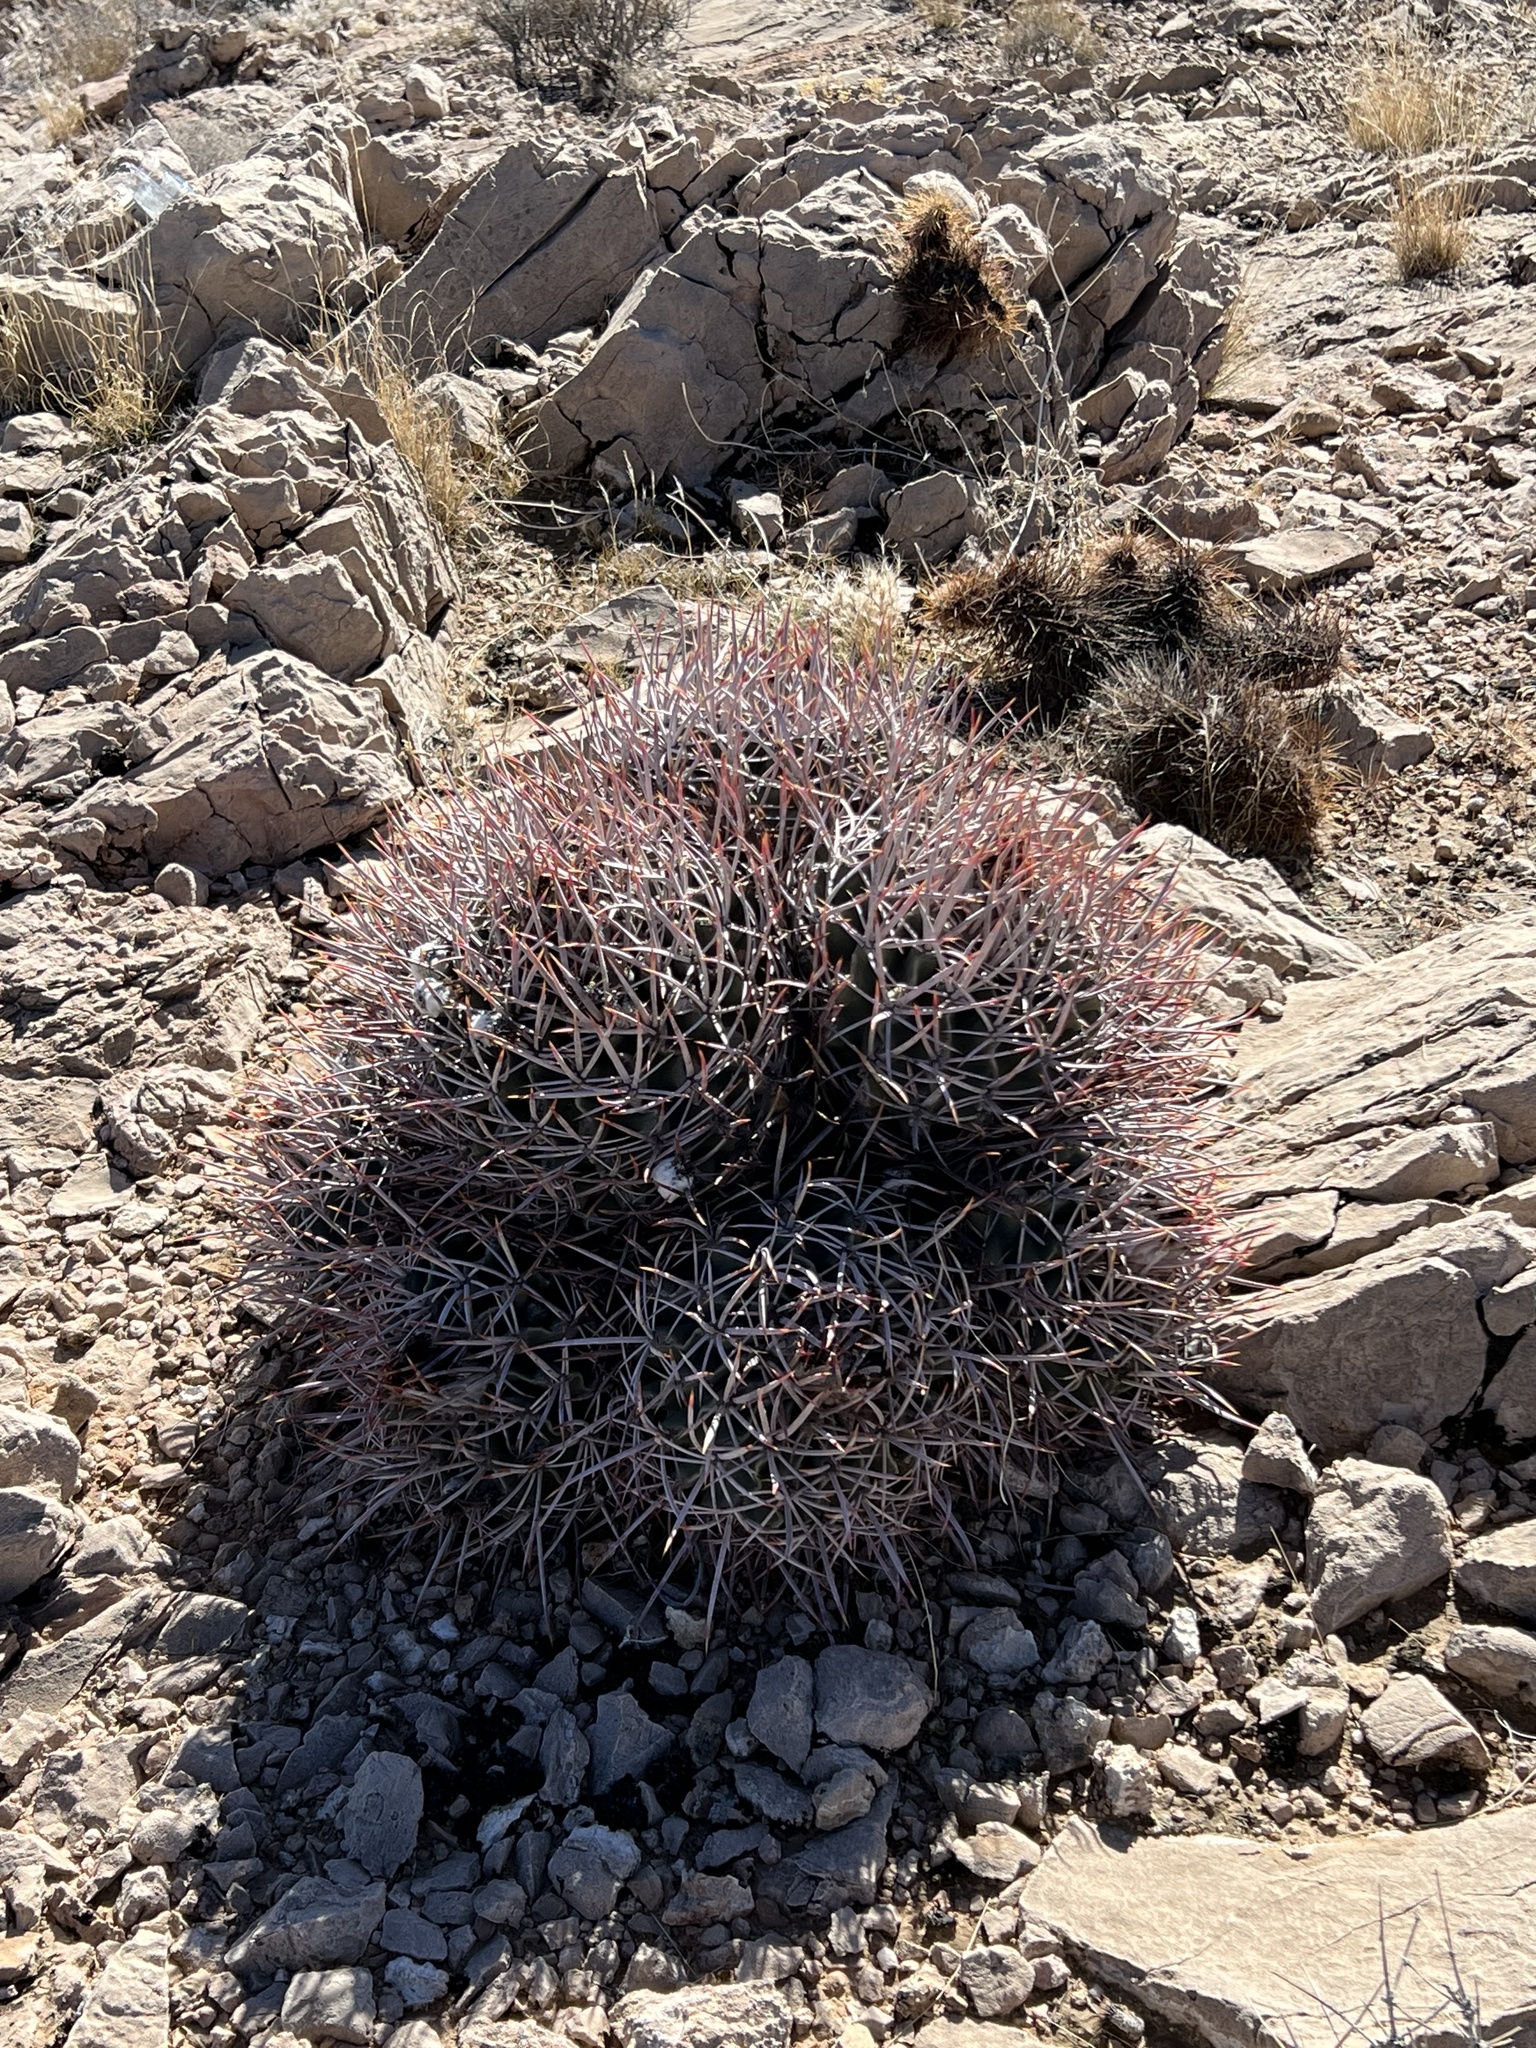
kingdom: Plantae
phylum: Tracheophyta
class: Magnoliopsida
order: Caryophyllales
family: Cactaceae
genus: Echinocactus
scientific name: Echinocactus polycephalus
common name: Cottontop cactus
